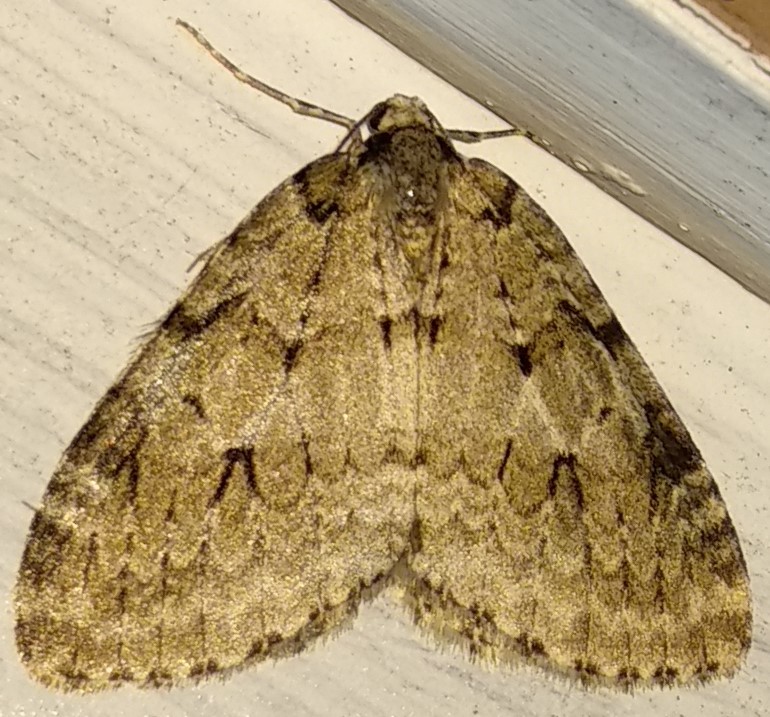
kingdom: Animalia
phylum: Arthropoda
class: Insecta
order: Lepidoptera
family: Geometridae
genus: Epirrita
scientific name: Epirrita autumnata
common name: Autumnal moth
